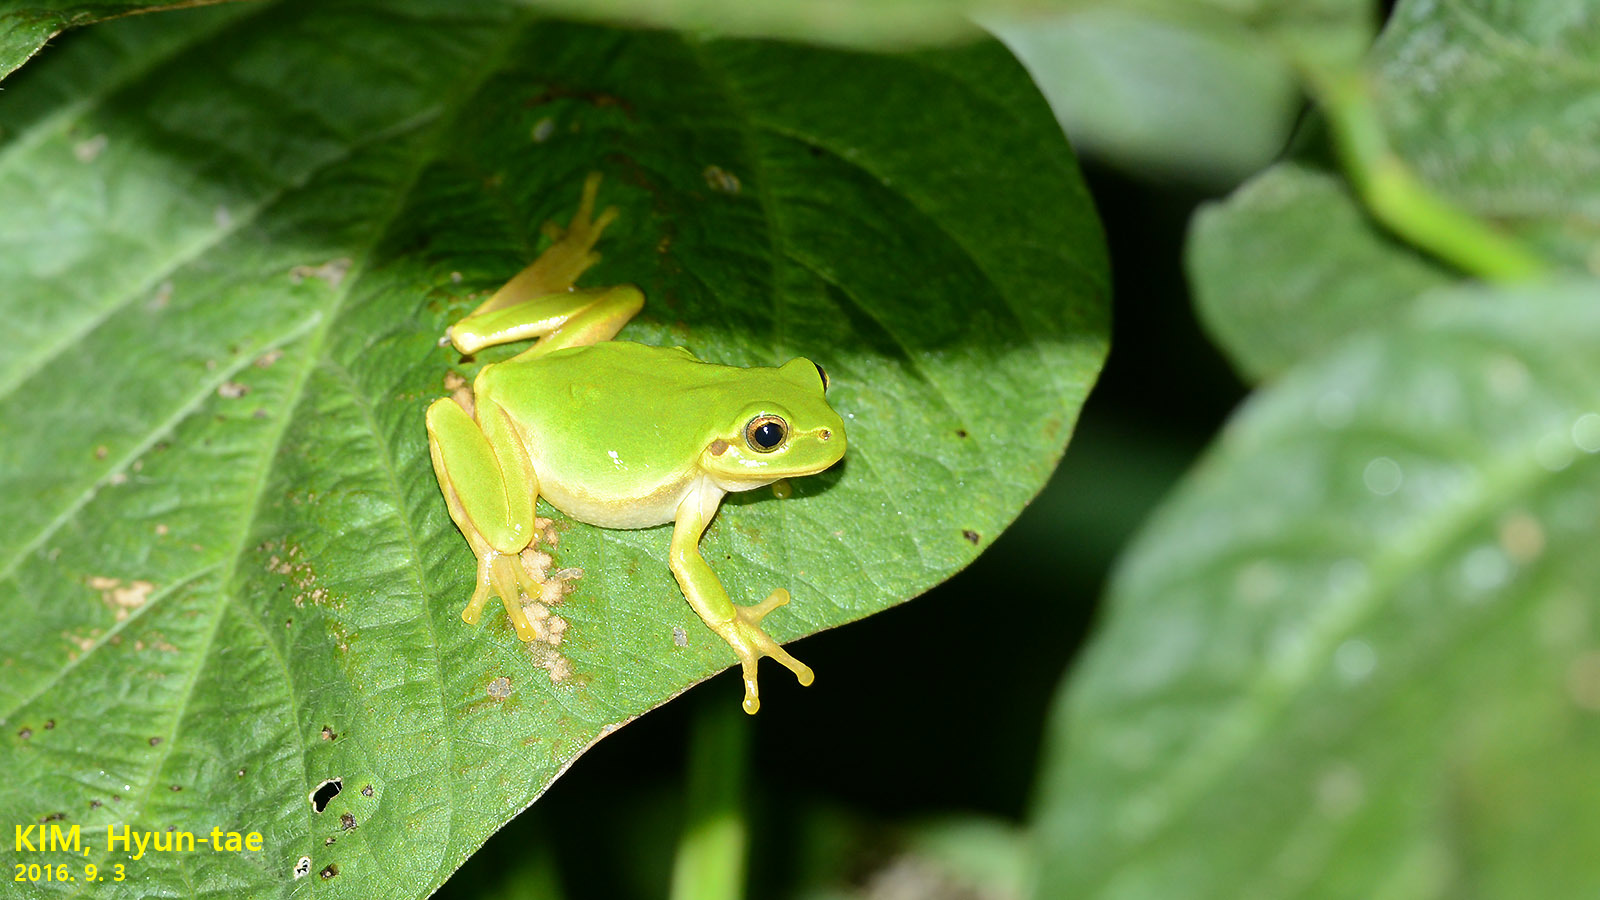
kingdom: Animalia
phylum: Chordata
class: Amphibia
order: Anura
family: Hylidae
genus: Dryophytes
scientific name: Dryophytes japonicus
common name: Japanese treefrog
